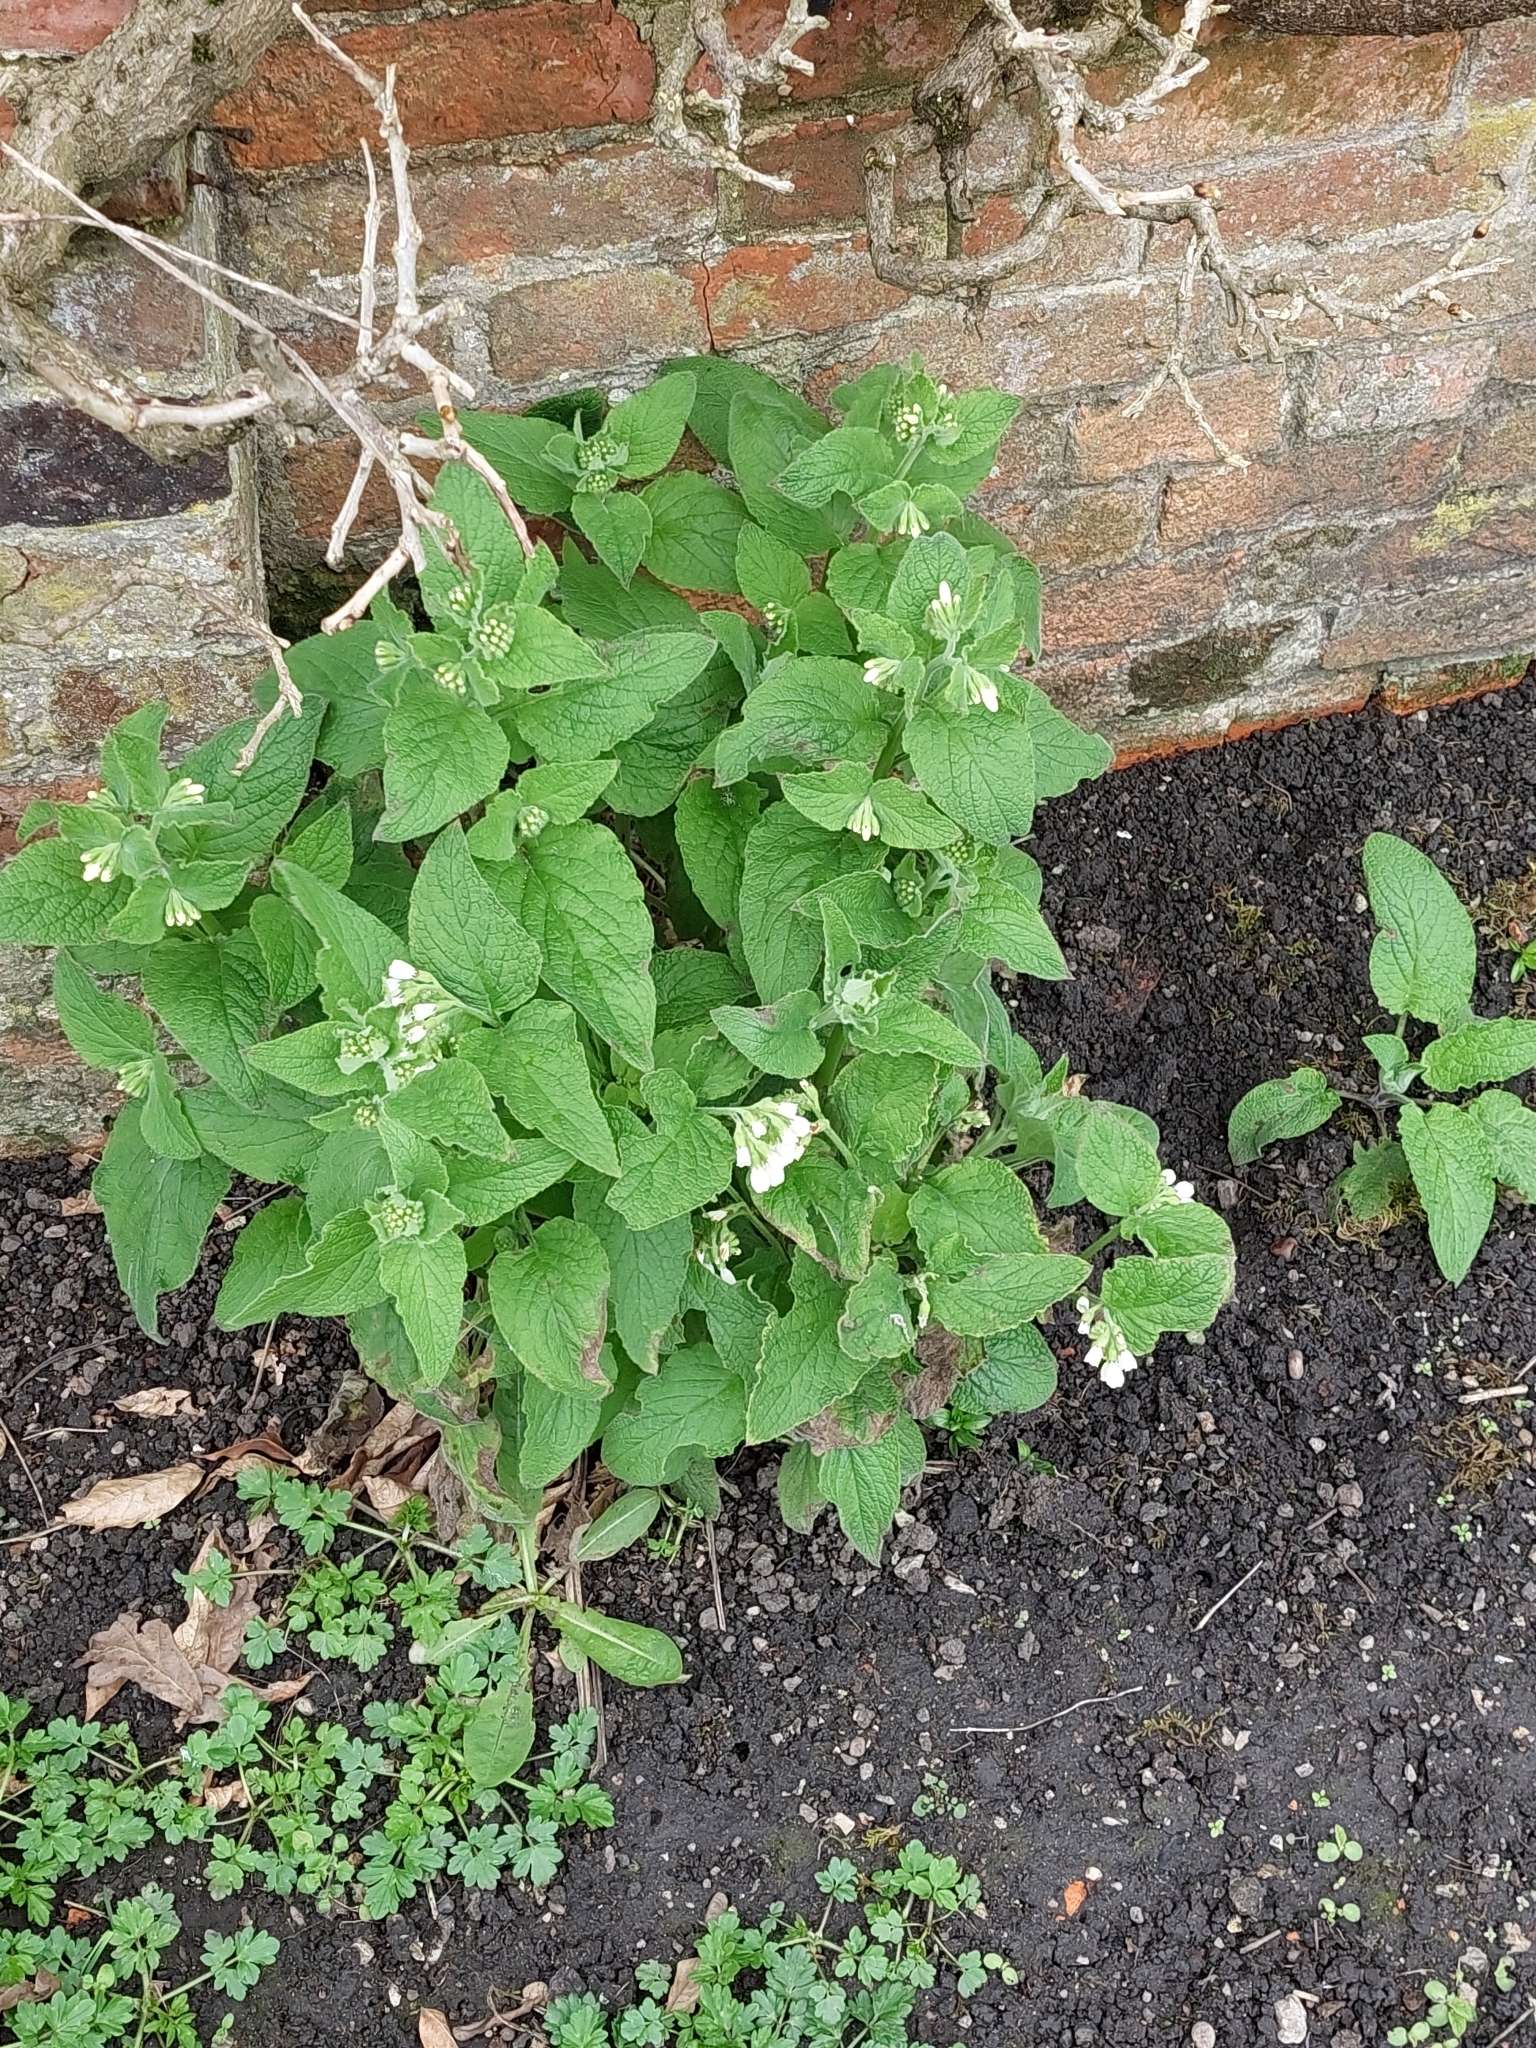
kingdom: Plantae
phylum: Tracheophyta
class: Magnoliopsida
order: Boraginales
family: Boraginaceae
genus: Symphytum
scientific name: Symphytum orientale
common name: White comfrey
